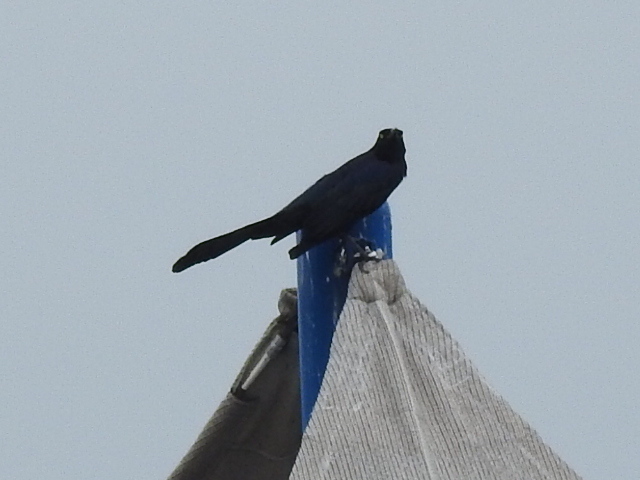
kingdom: Animalia
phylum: Chordata
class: Aves
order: Passeriformes
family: Icteridae
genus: Quiscalus
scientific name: Quiscalus mexicanus
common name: Great-tailed grackle
